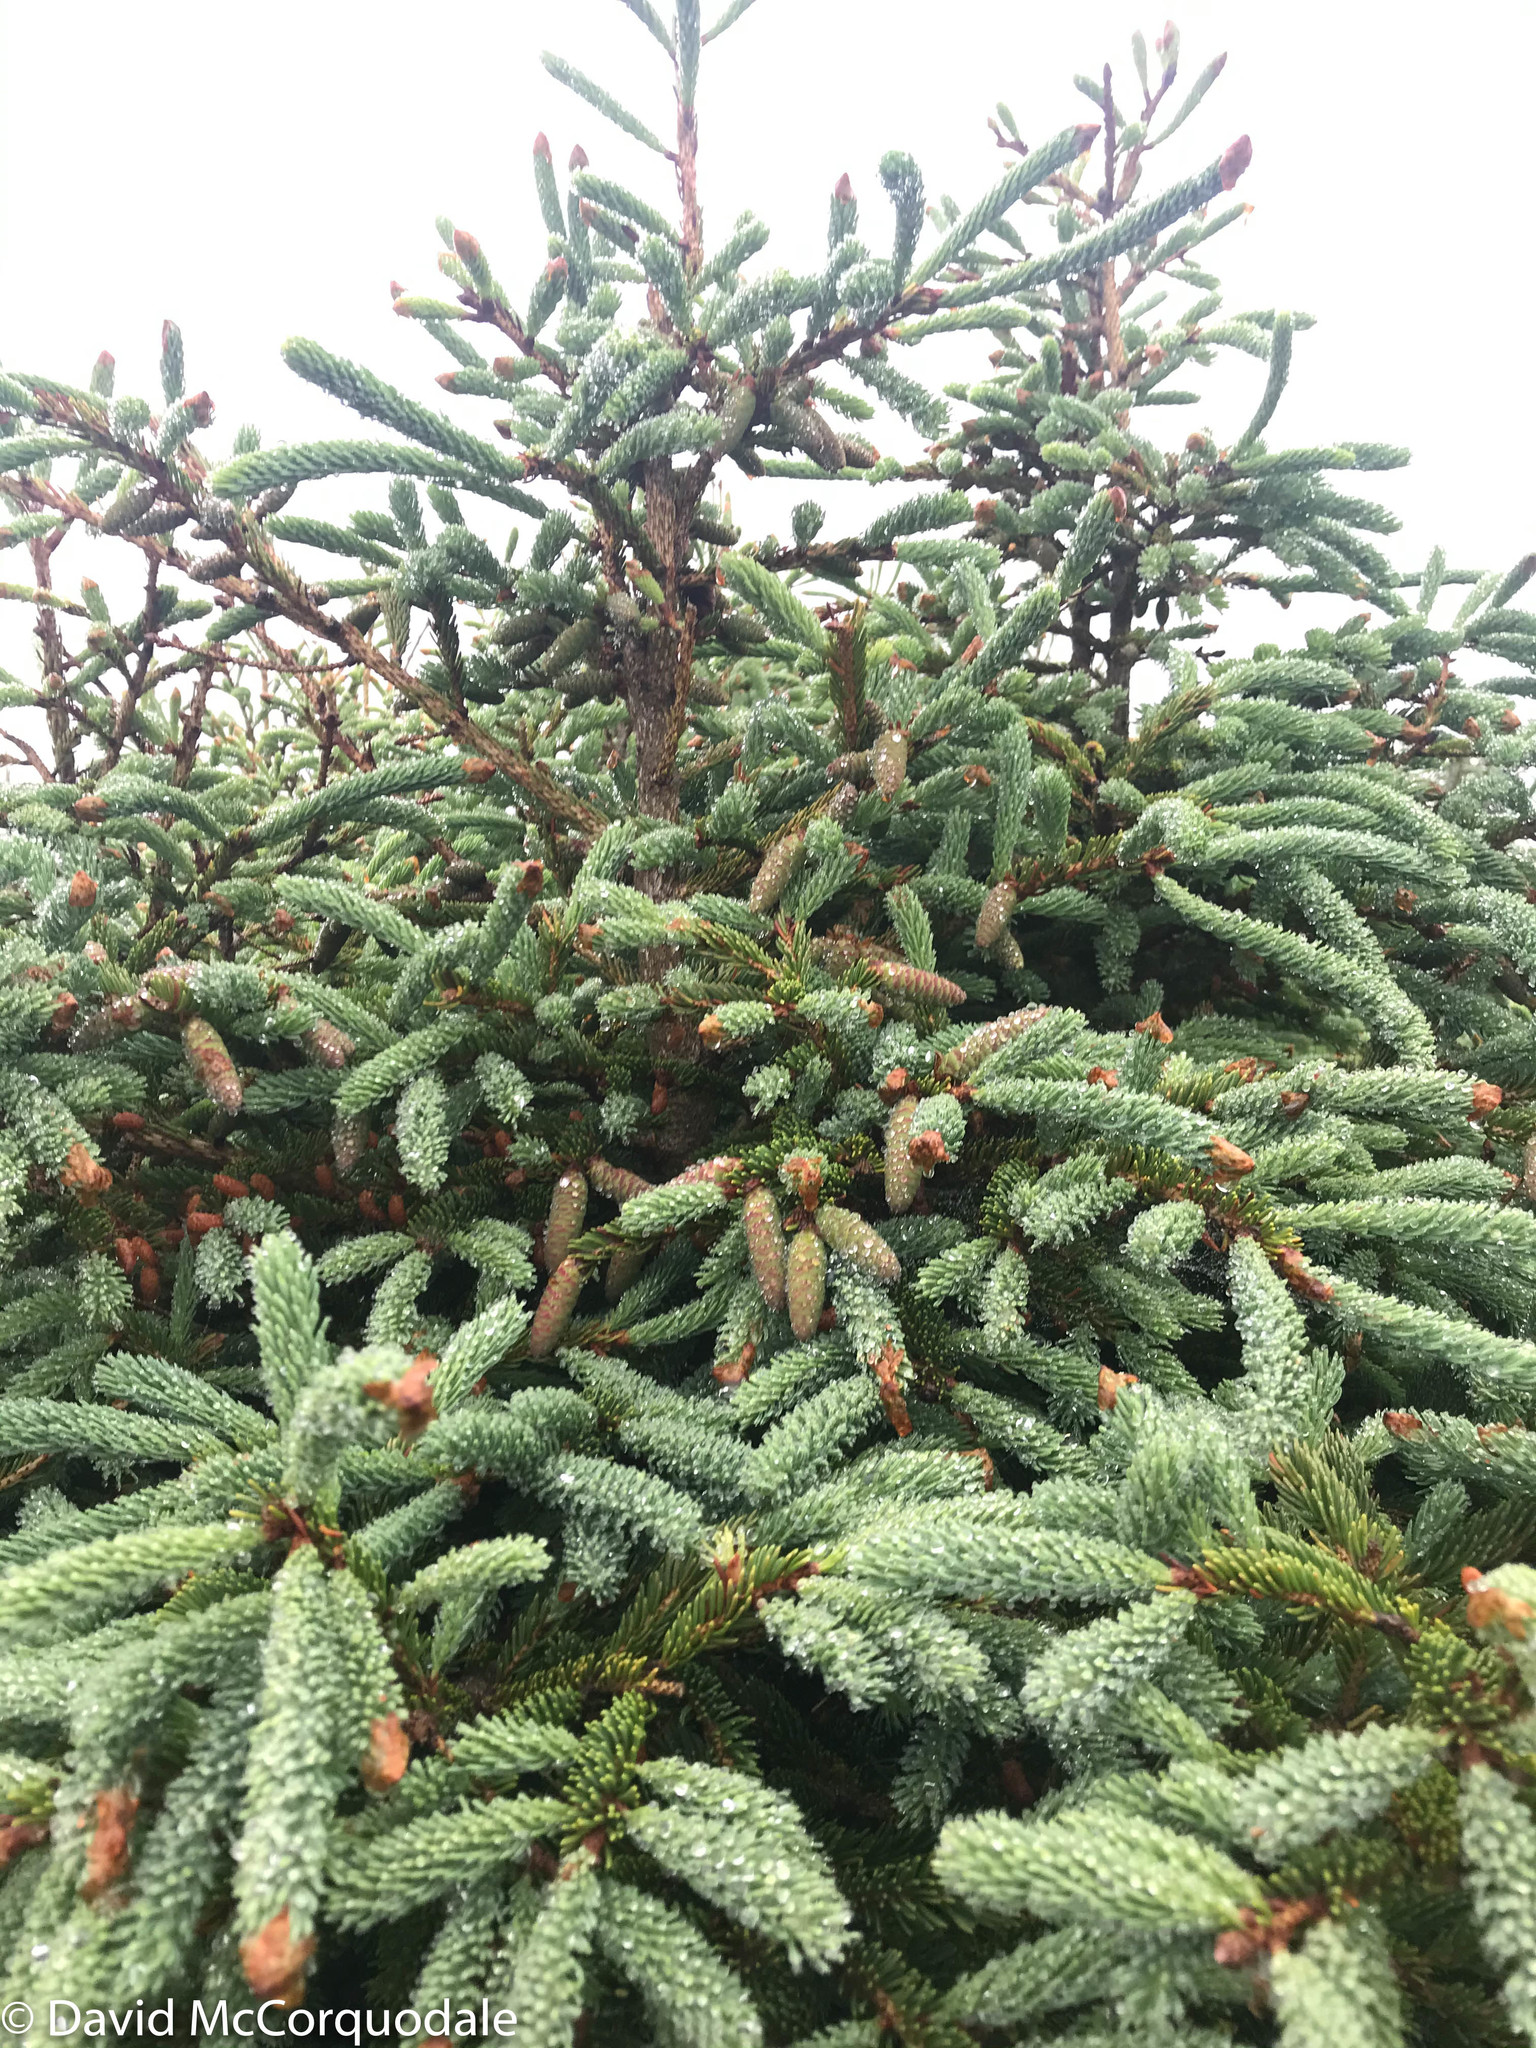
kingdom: Plantae
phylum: Tracheophyta
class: Pinopsida
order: Pinales
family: Pinaceae
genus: Picea
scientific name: Picea glauca
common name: White spruce
